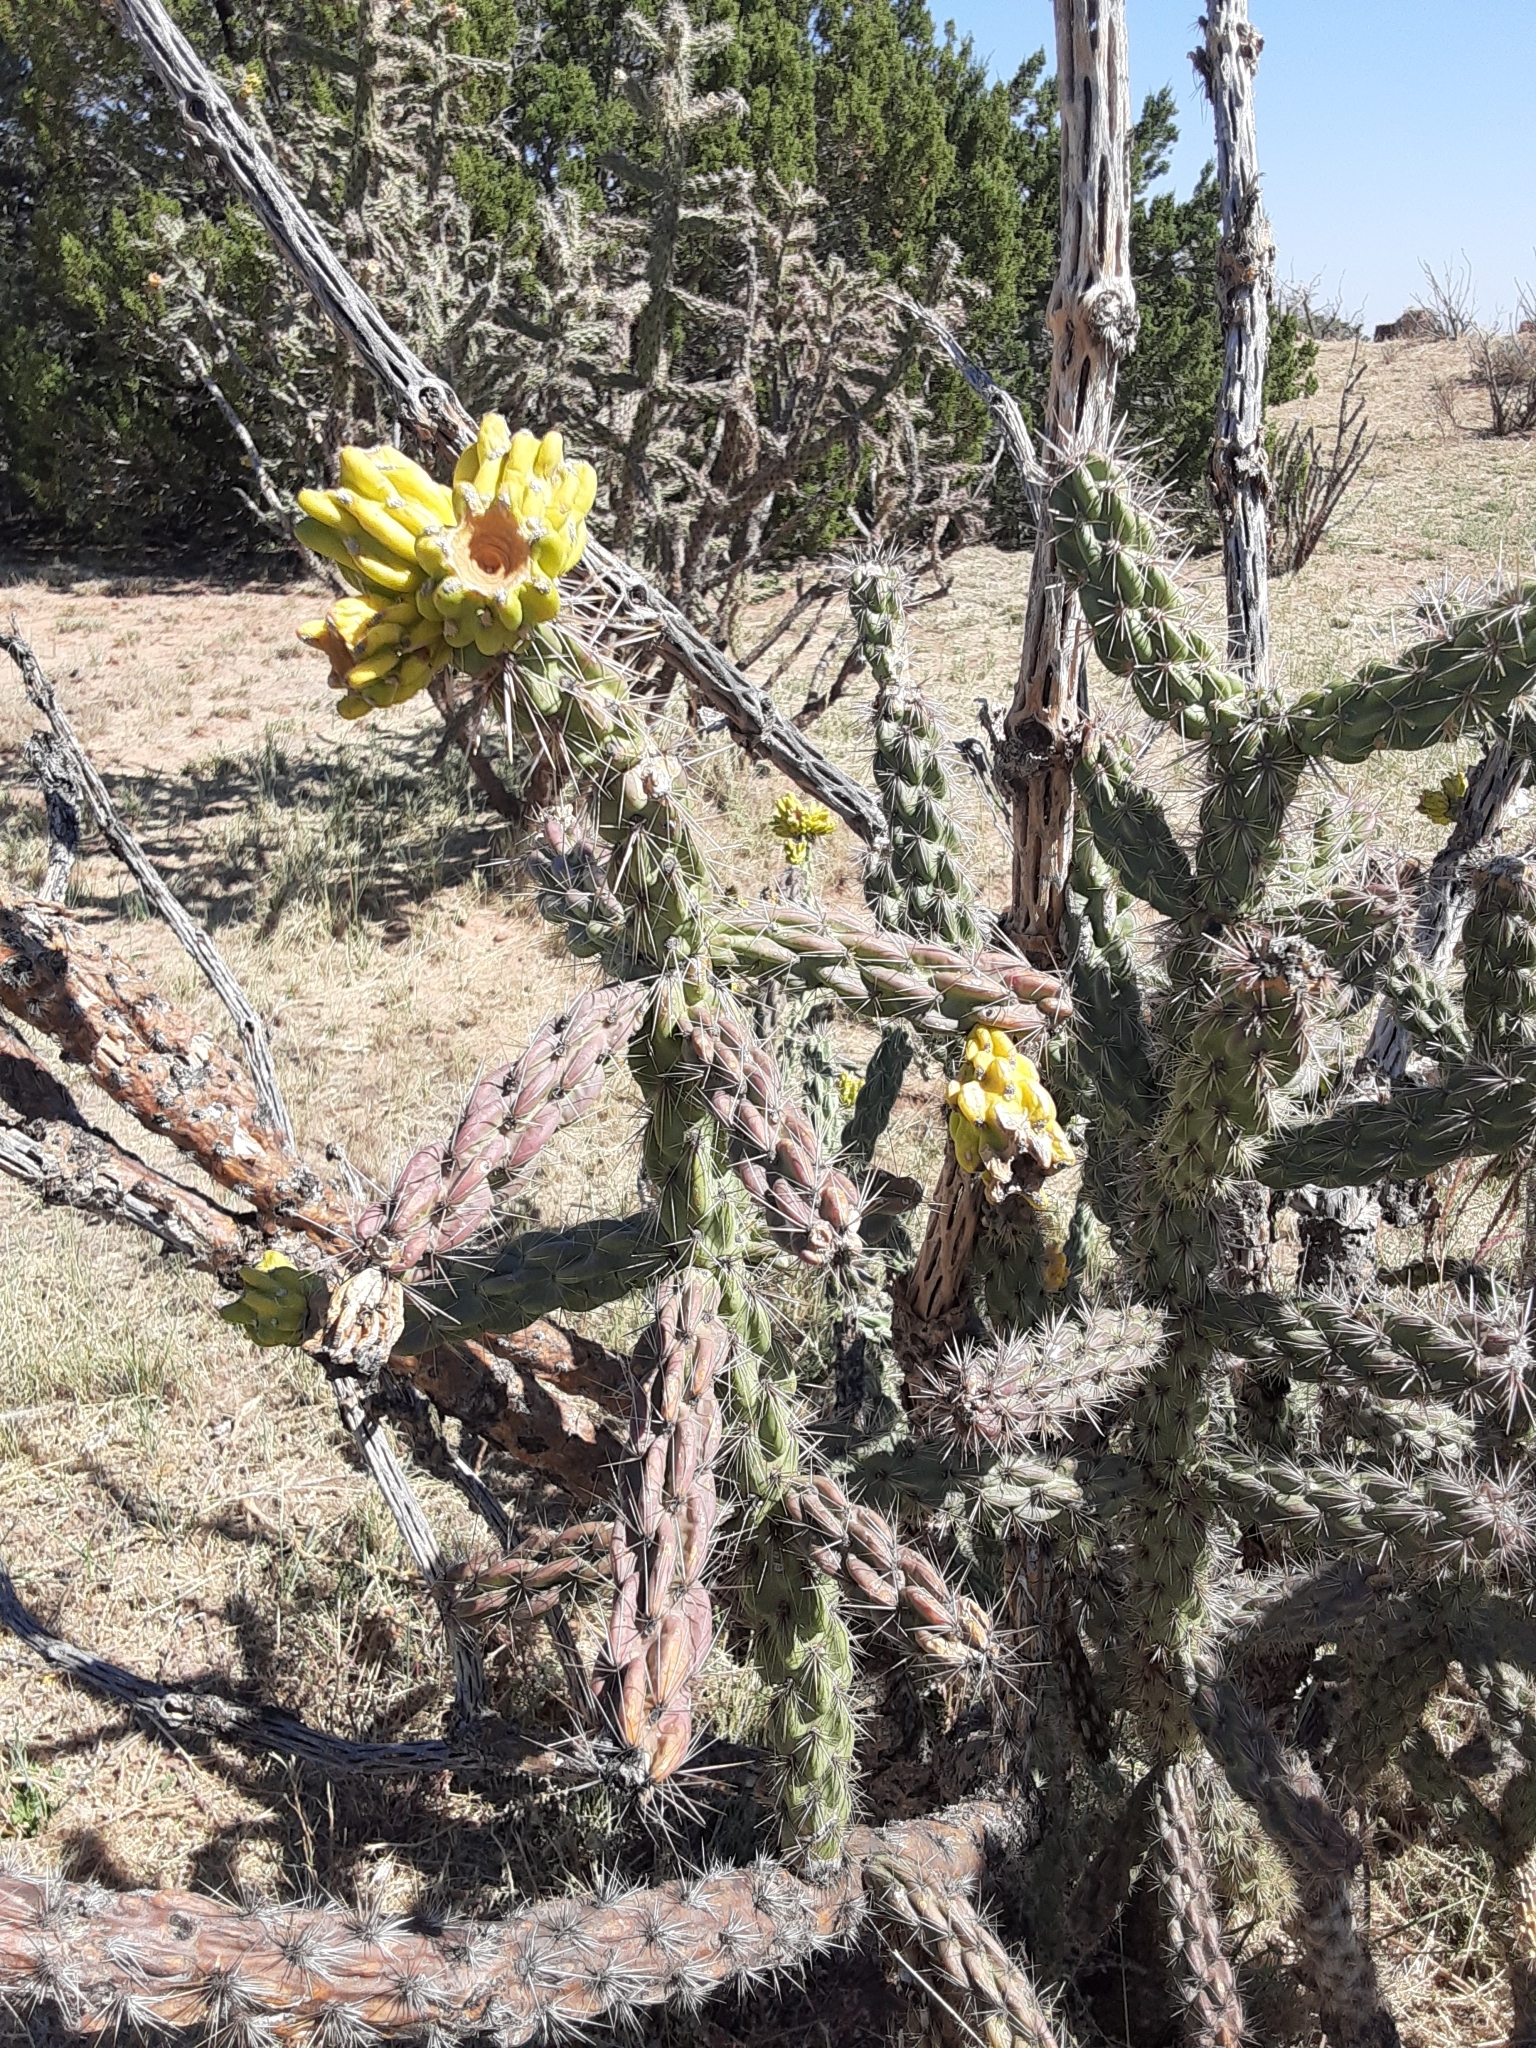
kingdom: Plantae
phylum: Tracheophyta
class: Magnoliopsida
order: Caryophyllales
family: Cactaceae
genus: Cylindropuntia
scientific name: Cylindropuntia imbricata
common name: Candelabrum cactus
